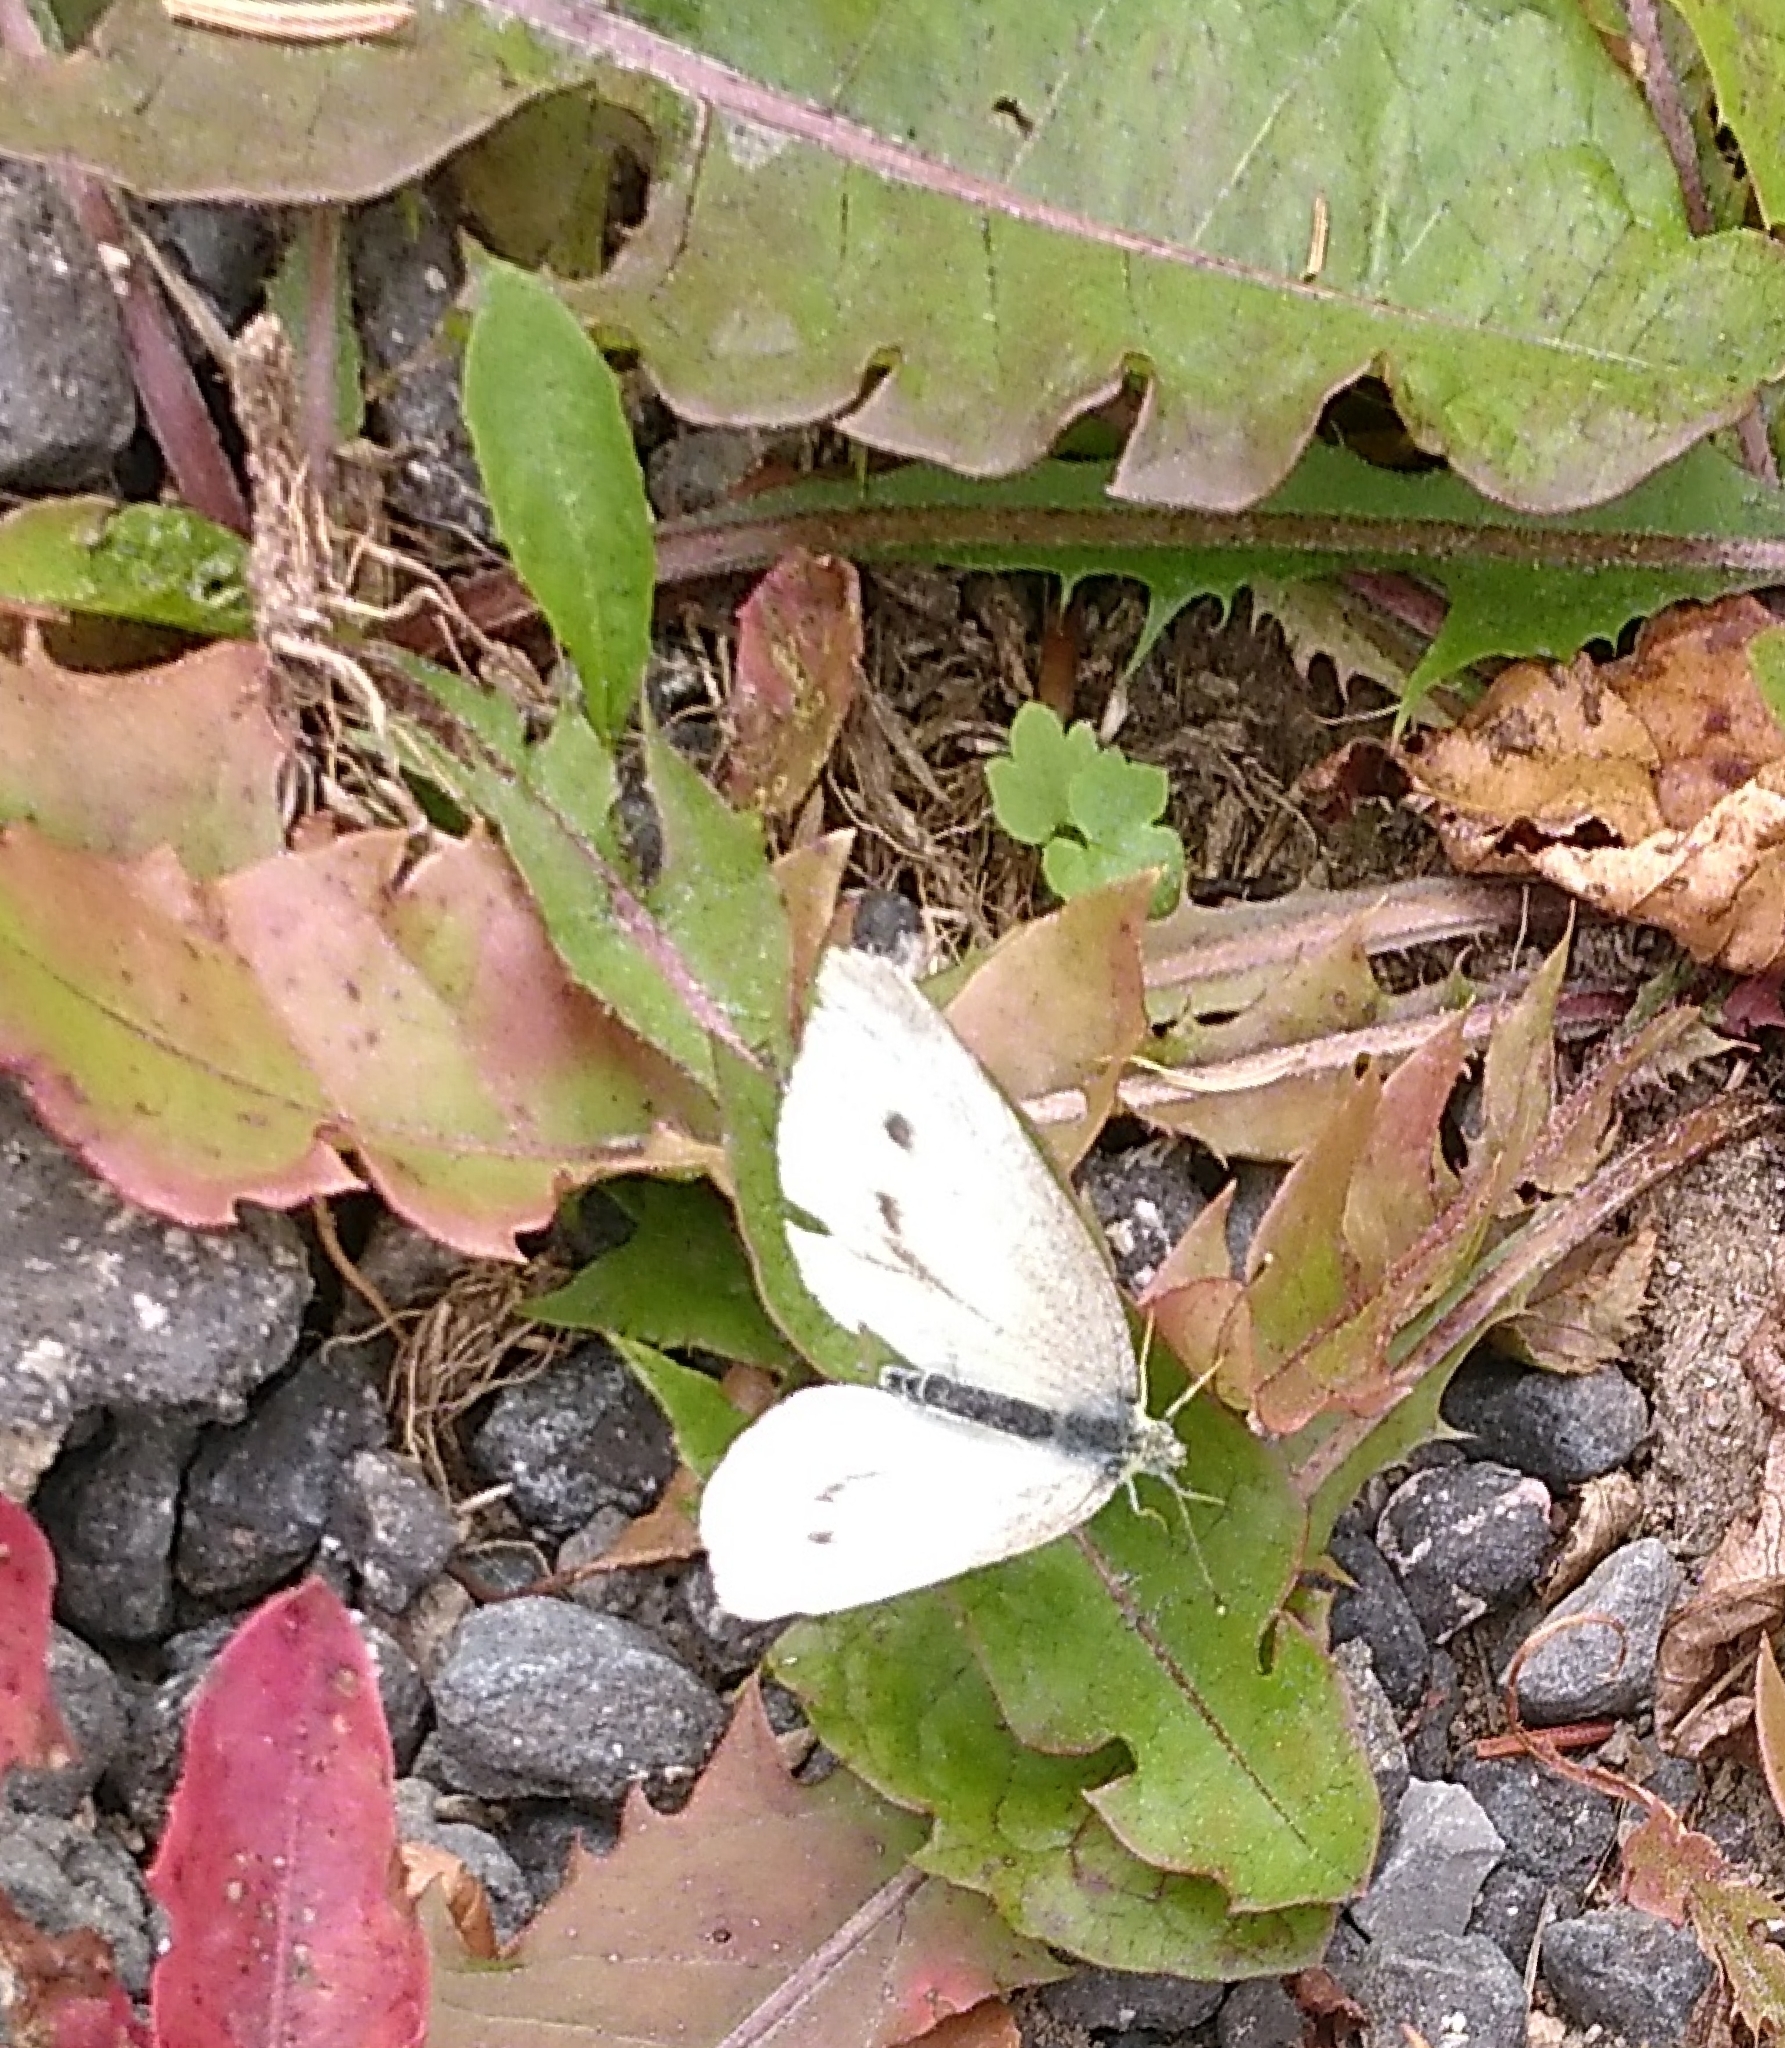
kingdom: Animalia
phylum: Arthropoda
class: Insecta
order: Lepidoptera
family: Pieridae
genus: Pieris
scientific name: Pieris rapae
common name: Small white
